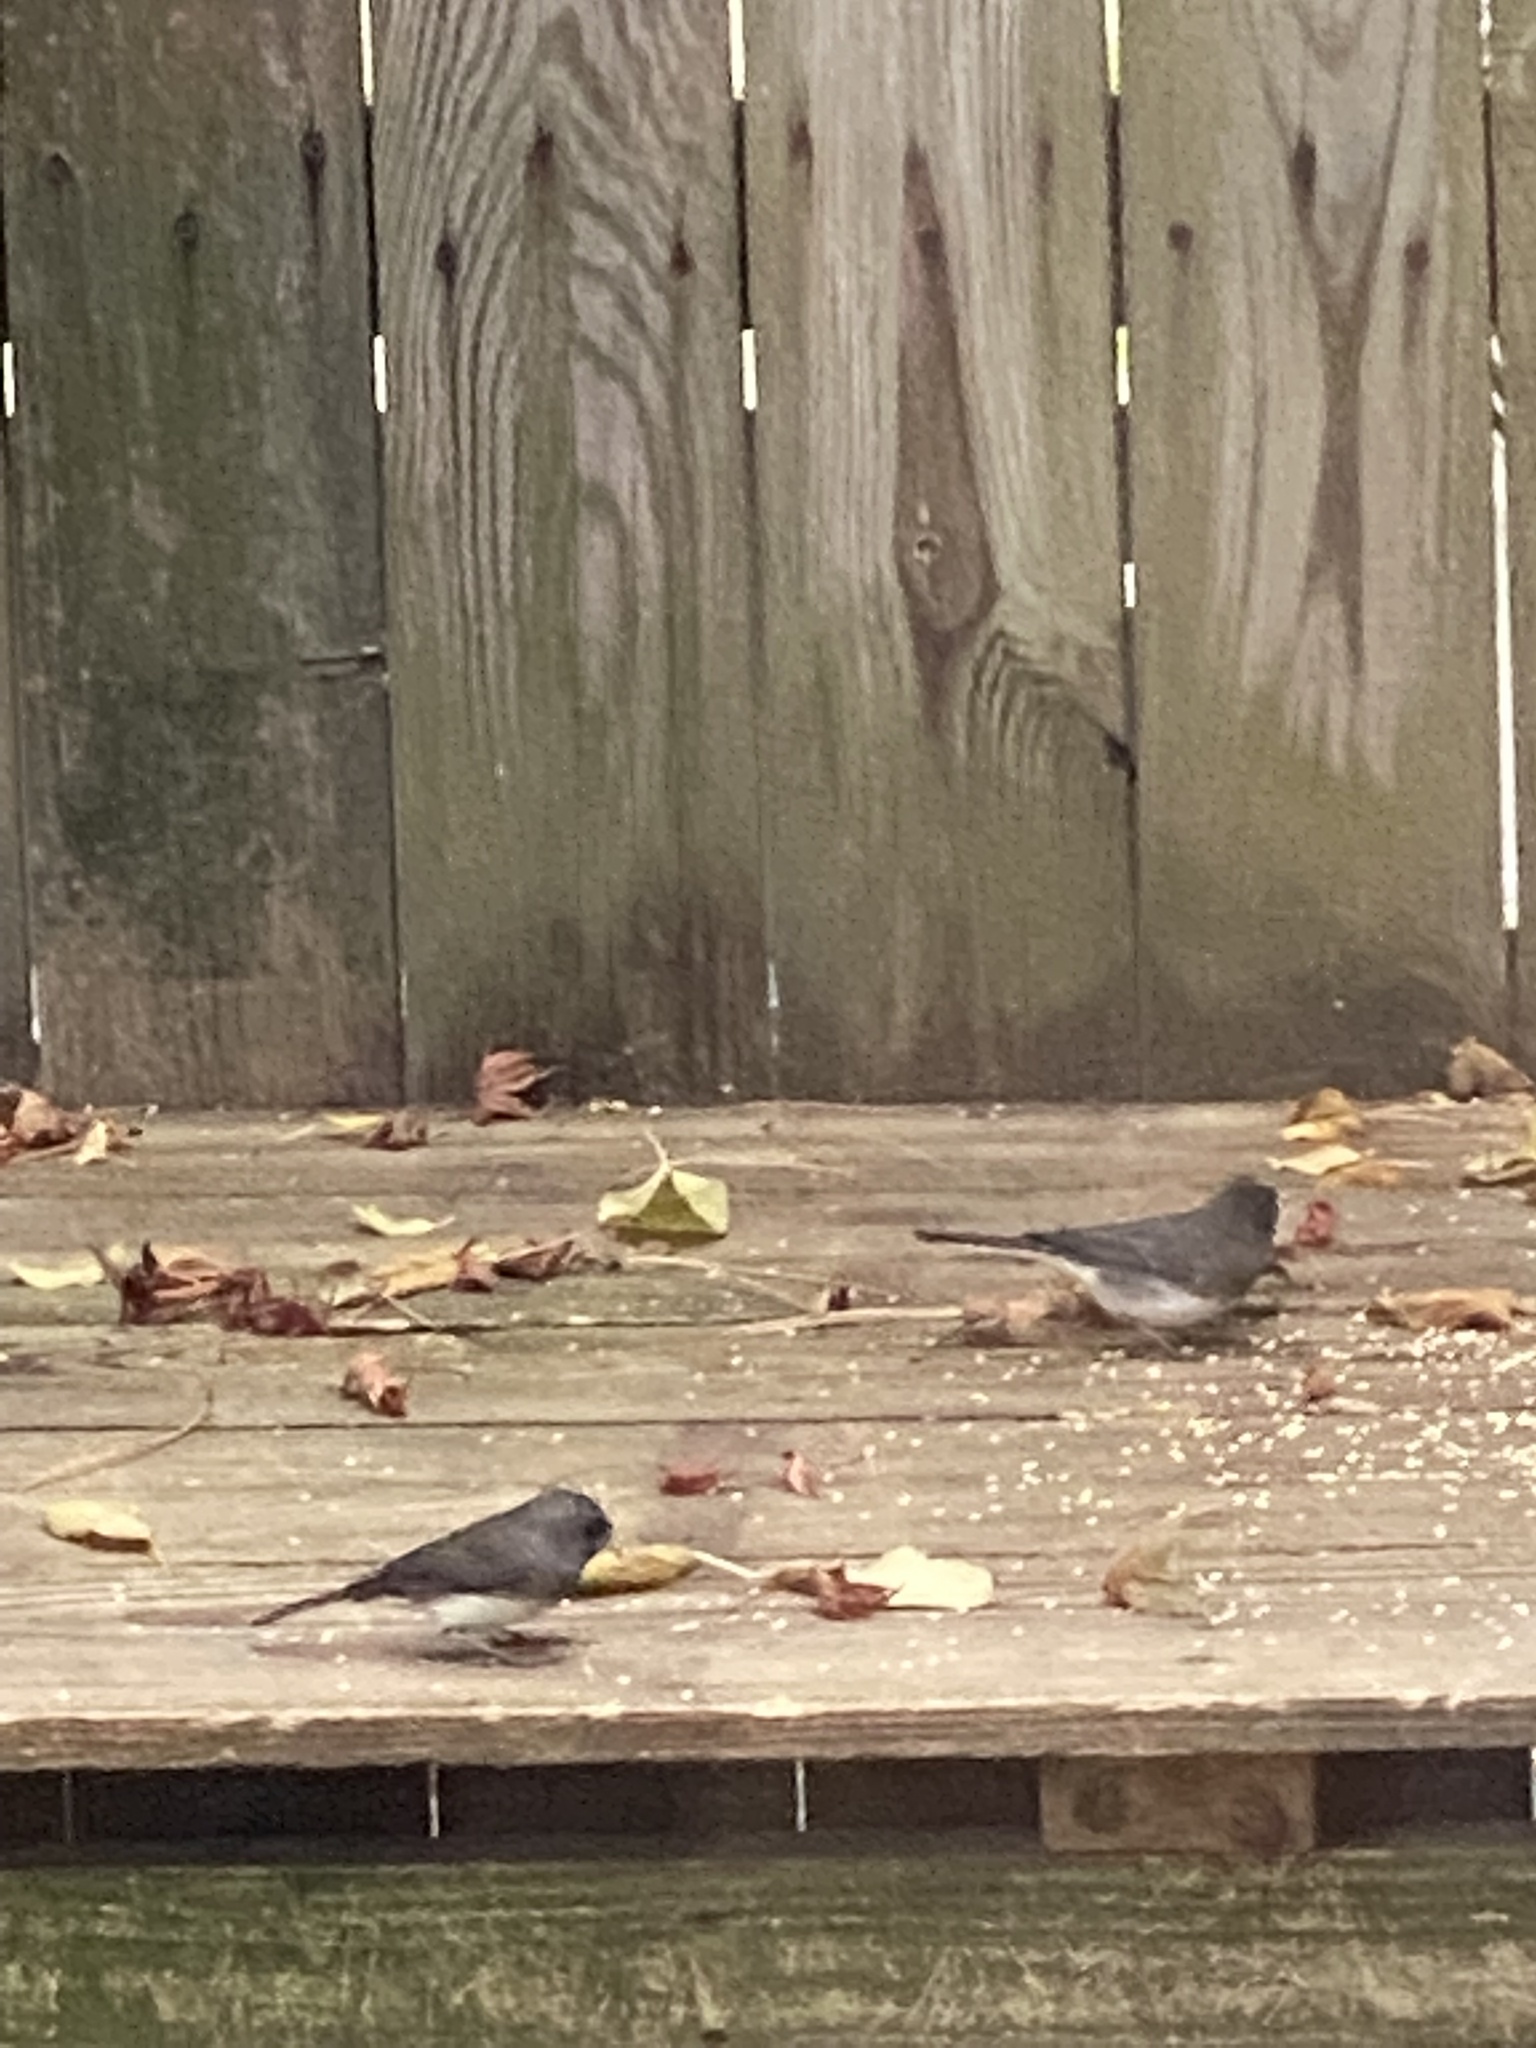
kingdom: Animalia
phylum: Chordata
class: Aves
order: Passeriformes
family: Passerellidae
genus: Junco
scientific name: Junco hyemalis
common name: Dark-eyed junco
